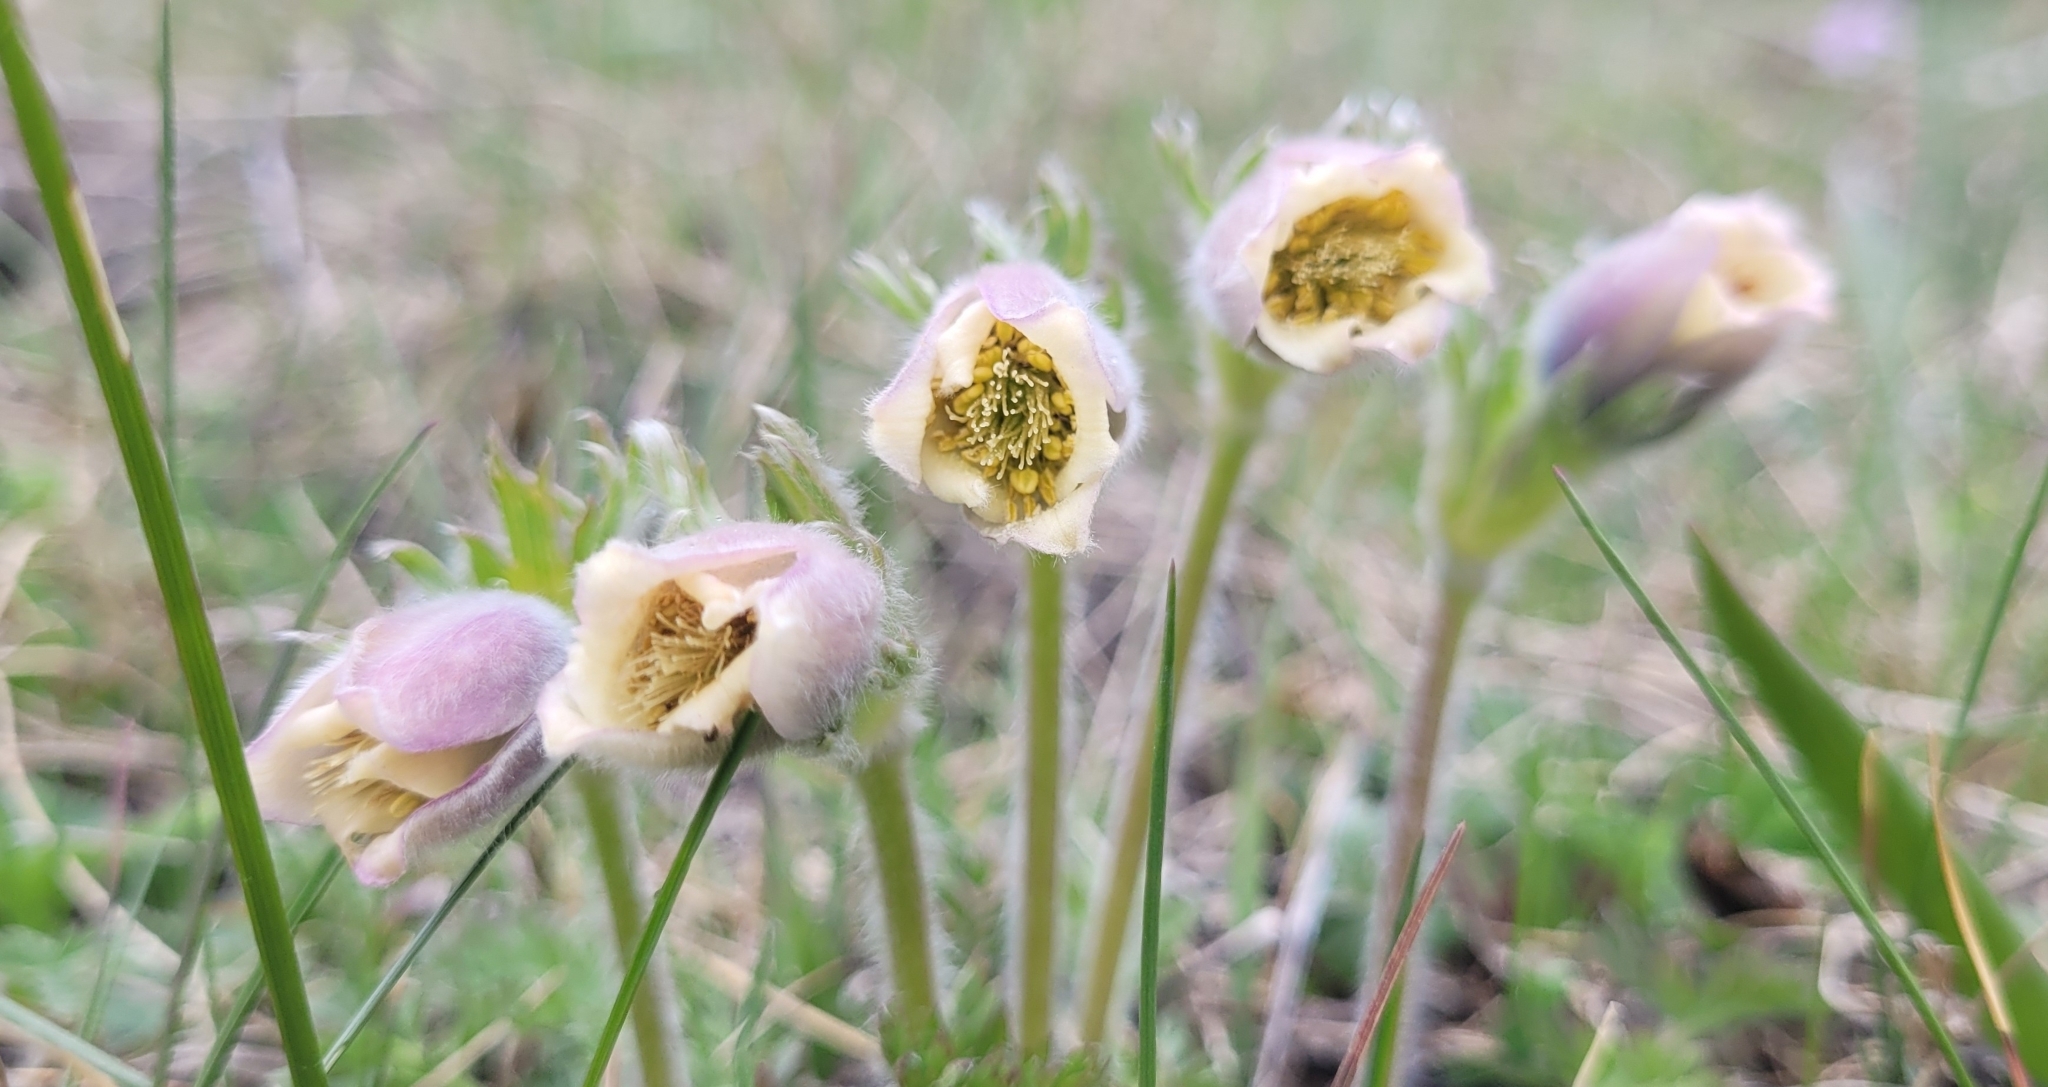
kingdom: Plantae
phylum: Tracheophyta
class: Magnoliopsida
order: Ranunculales
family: Ranunculaceae
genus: Pulsatilla
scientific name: Pulsatilla campanella
